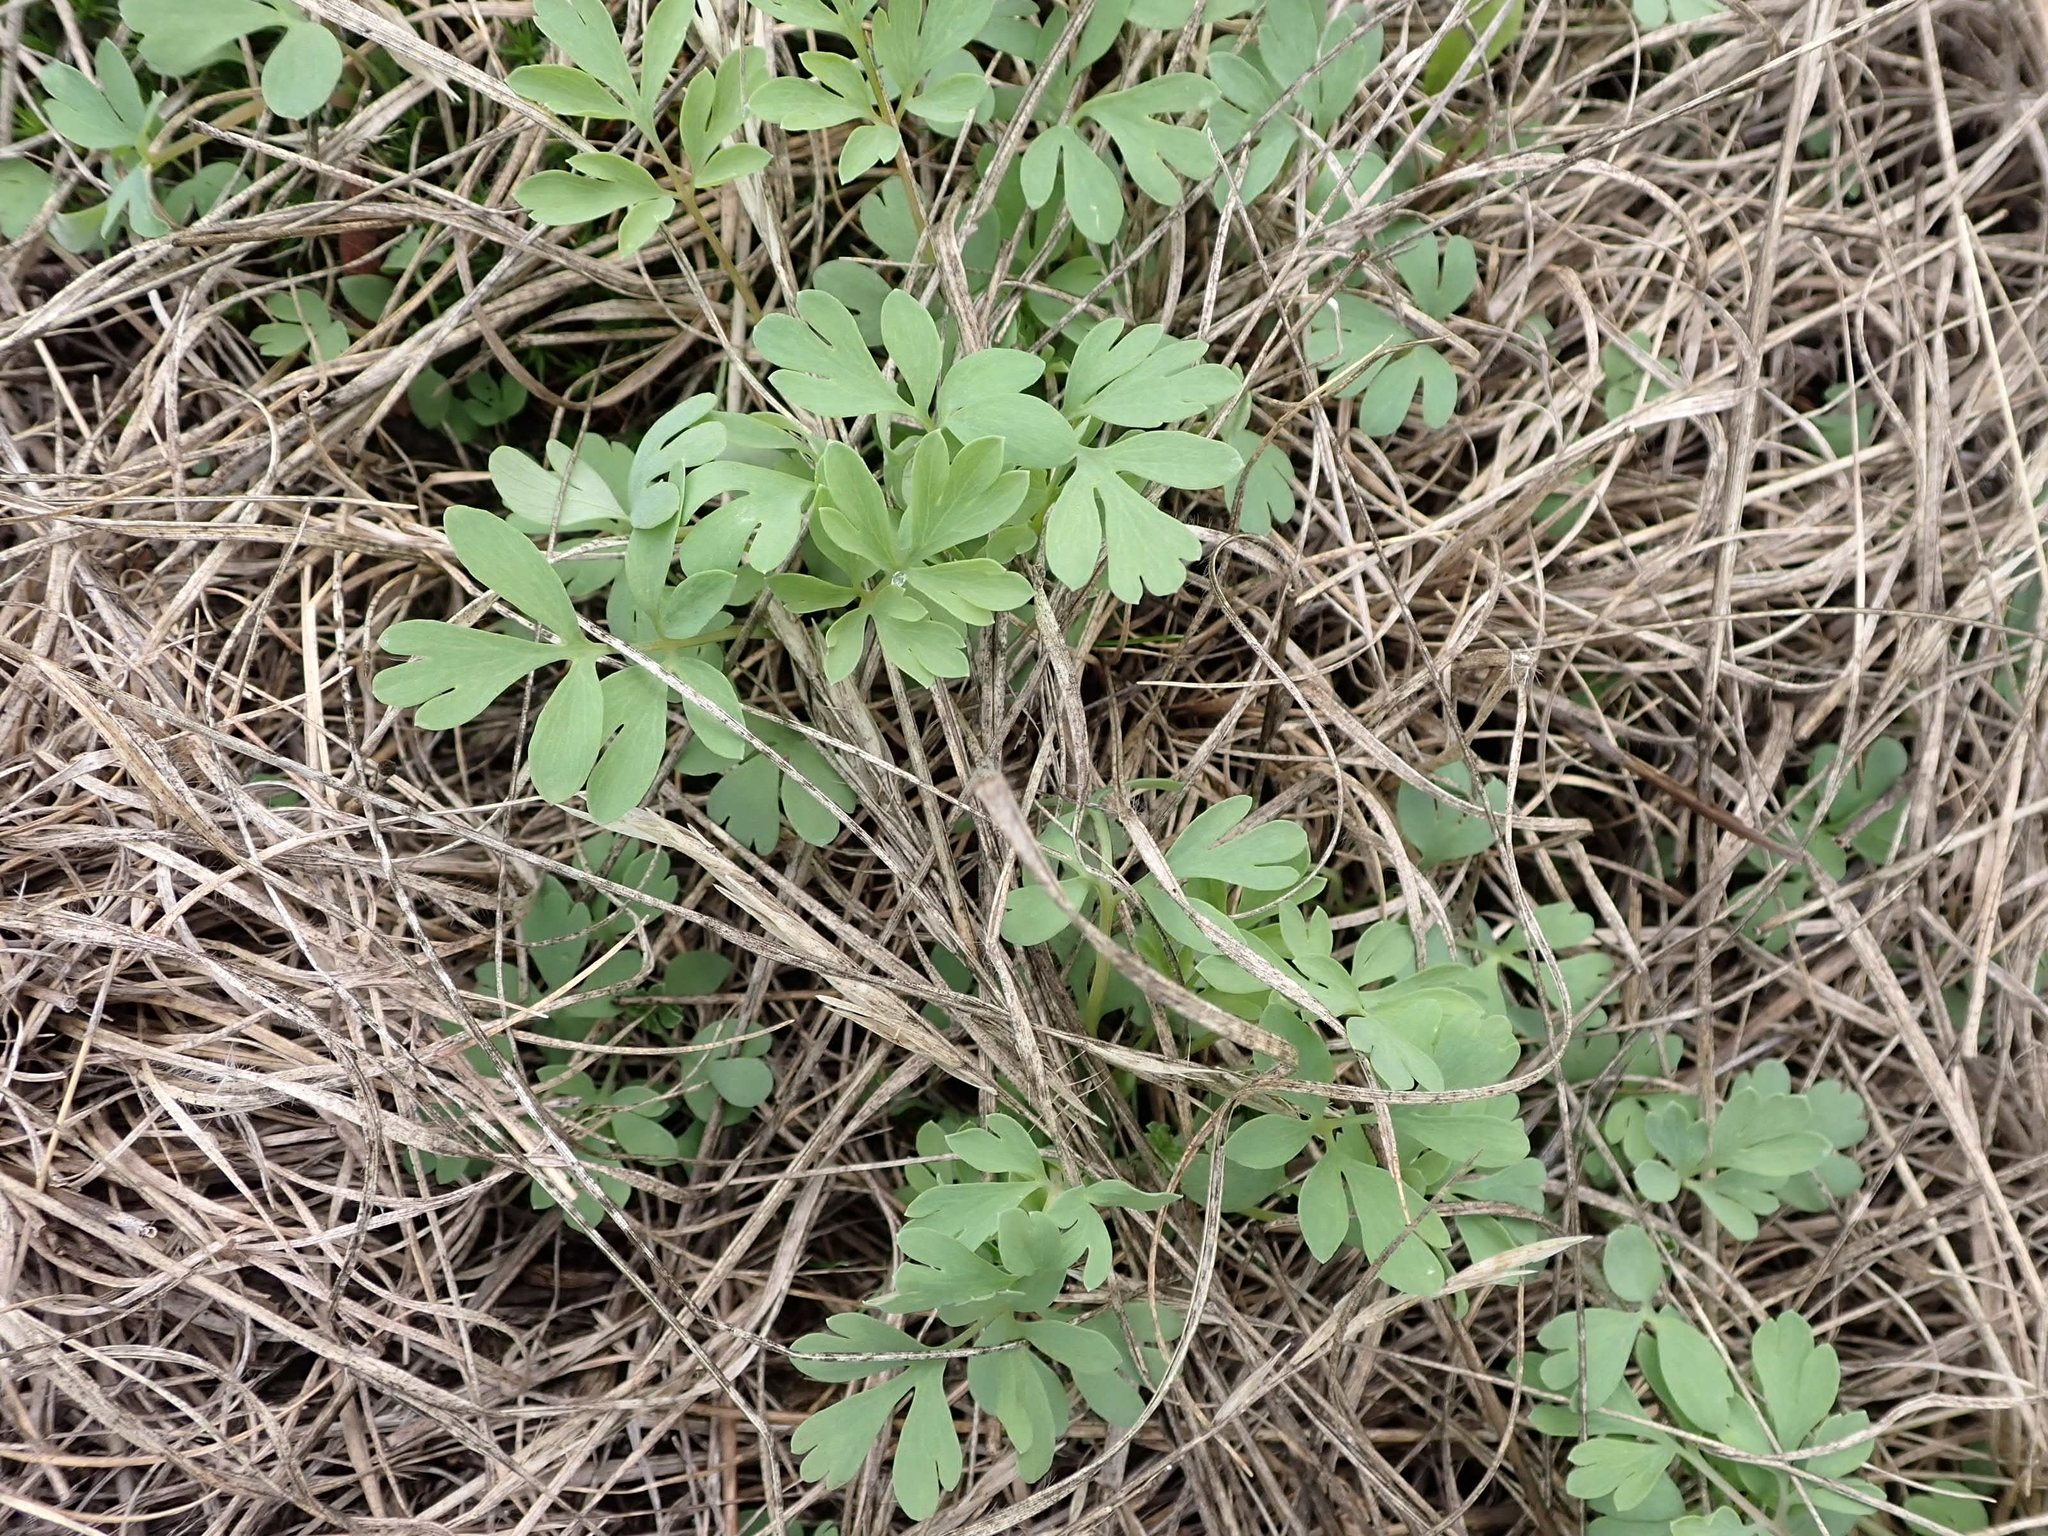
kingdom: Plantae
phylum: Tracheophyta
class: Magnoliopsida
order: Ranunculales
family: Papaveraceae
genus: Capnoides
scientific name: Capnoides sempervirens
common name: Rock harlequin
